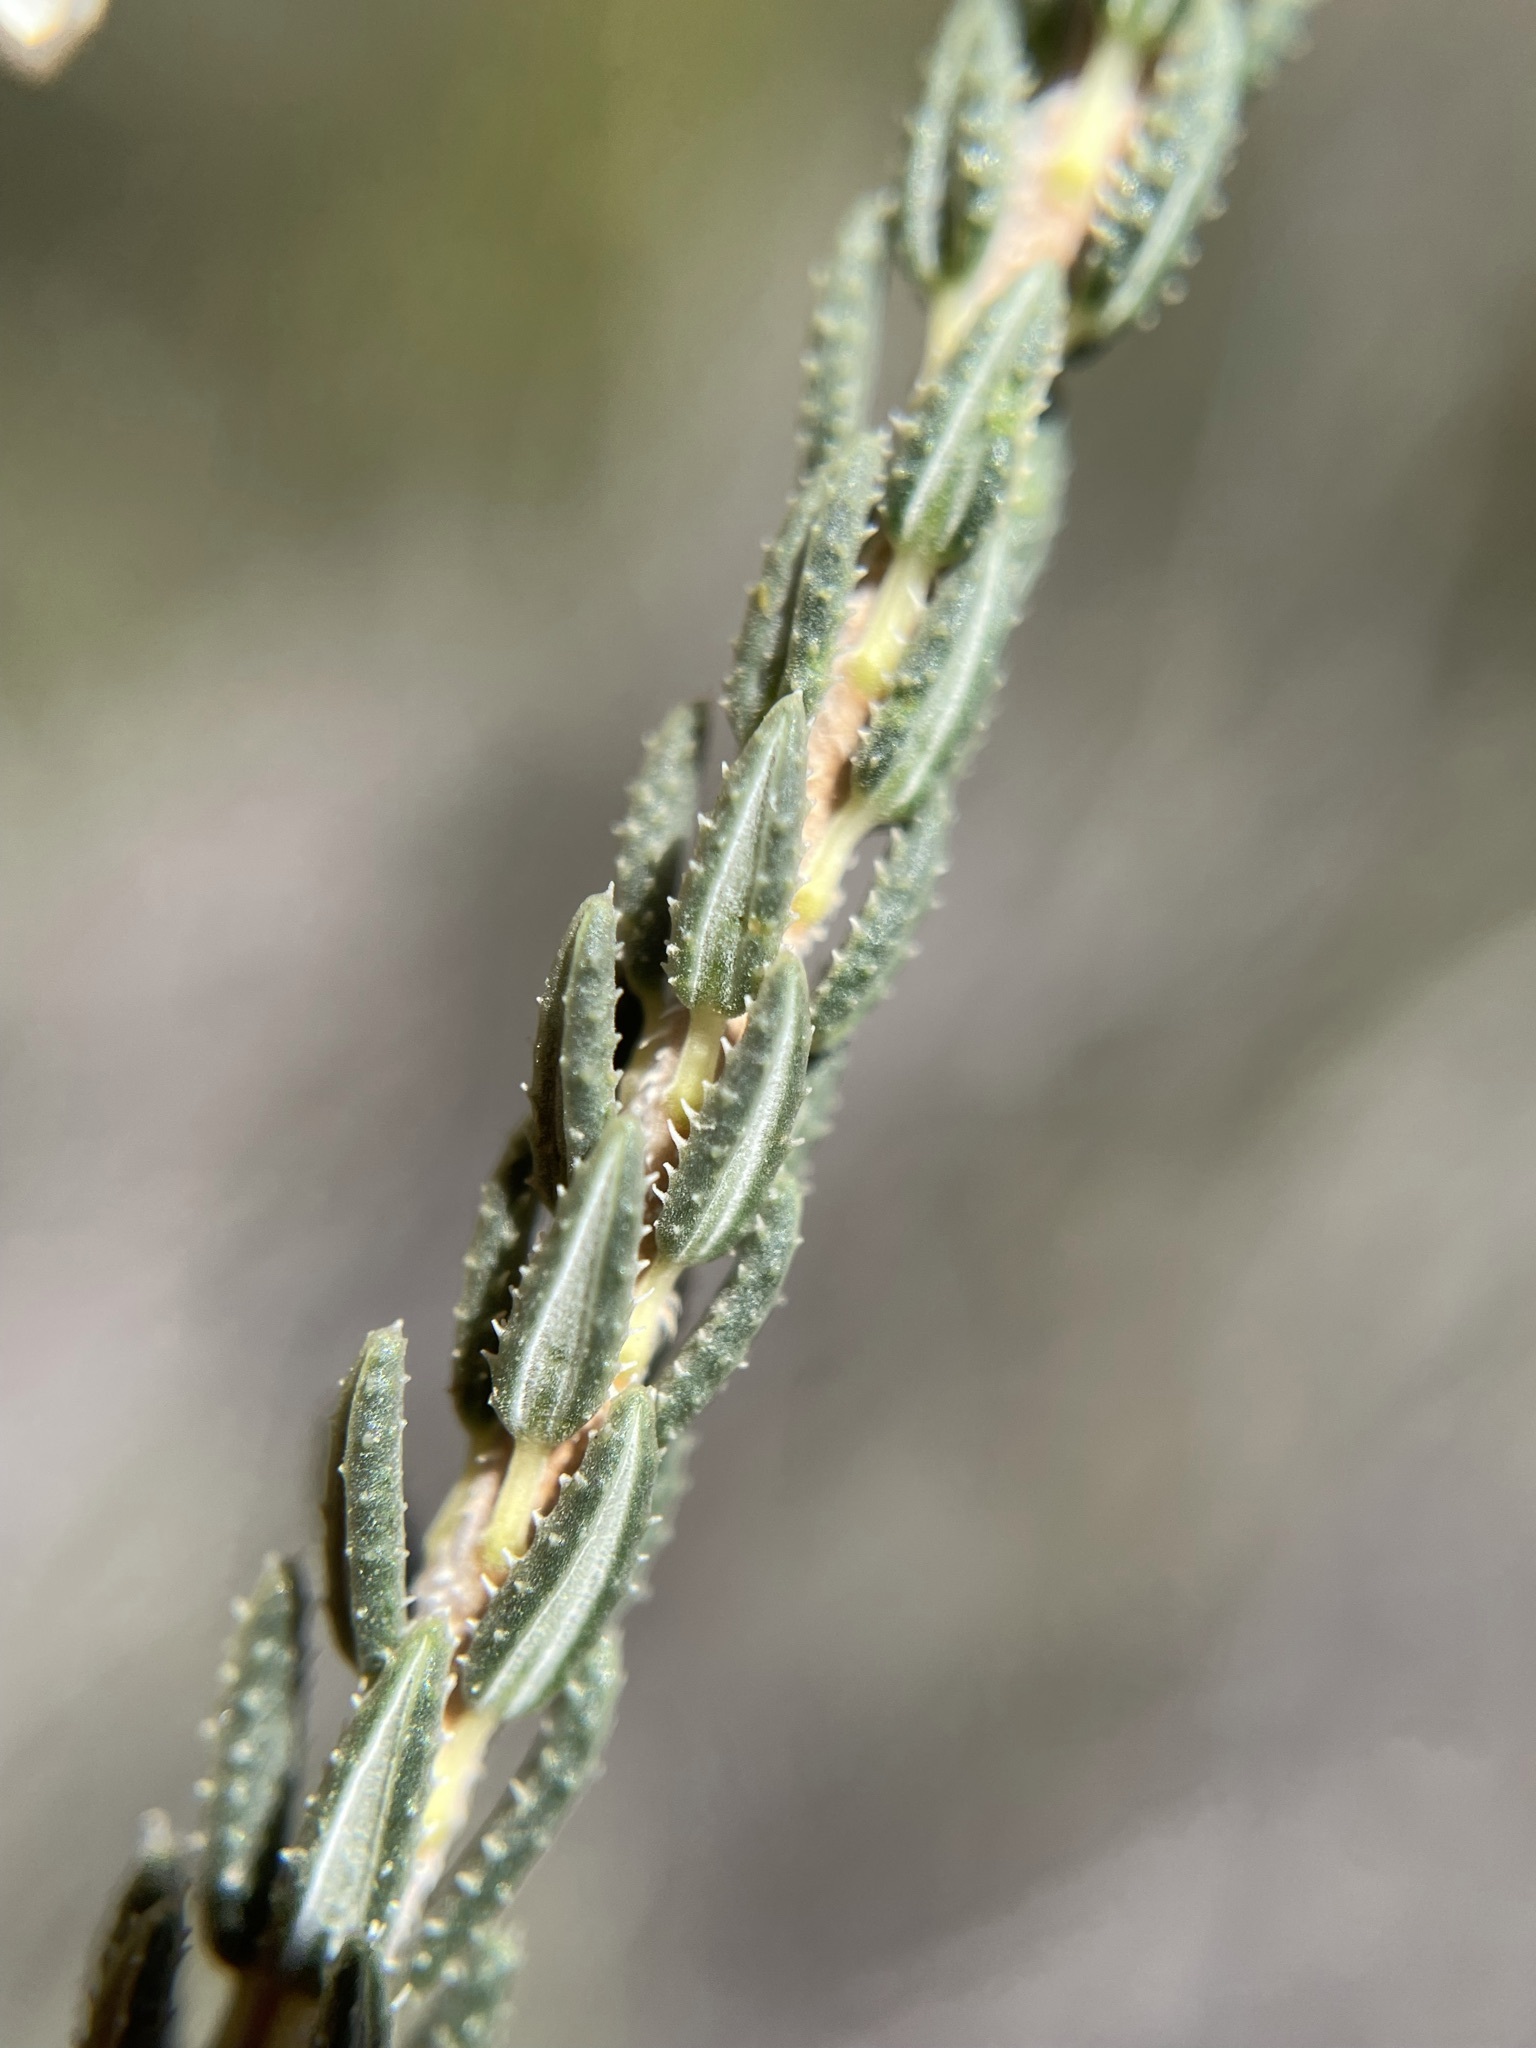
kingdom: Plantae
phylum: Tracheophyta
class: Magnoliopsida
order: Ericales
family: Ericaceae
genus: Erica
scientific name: Erica pectinifolia
